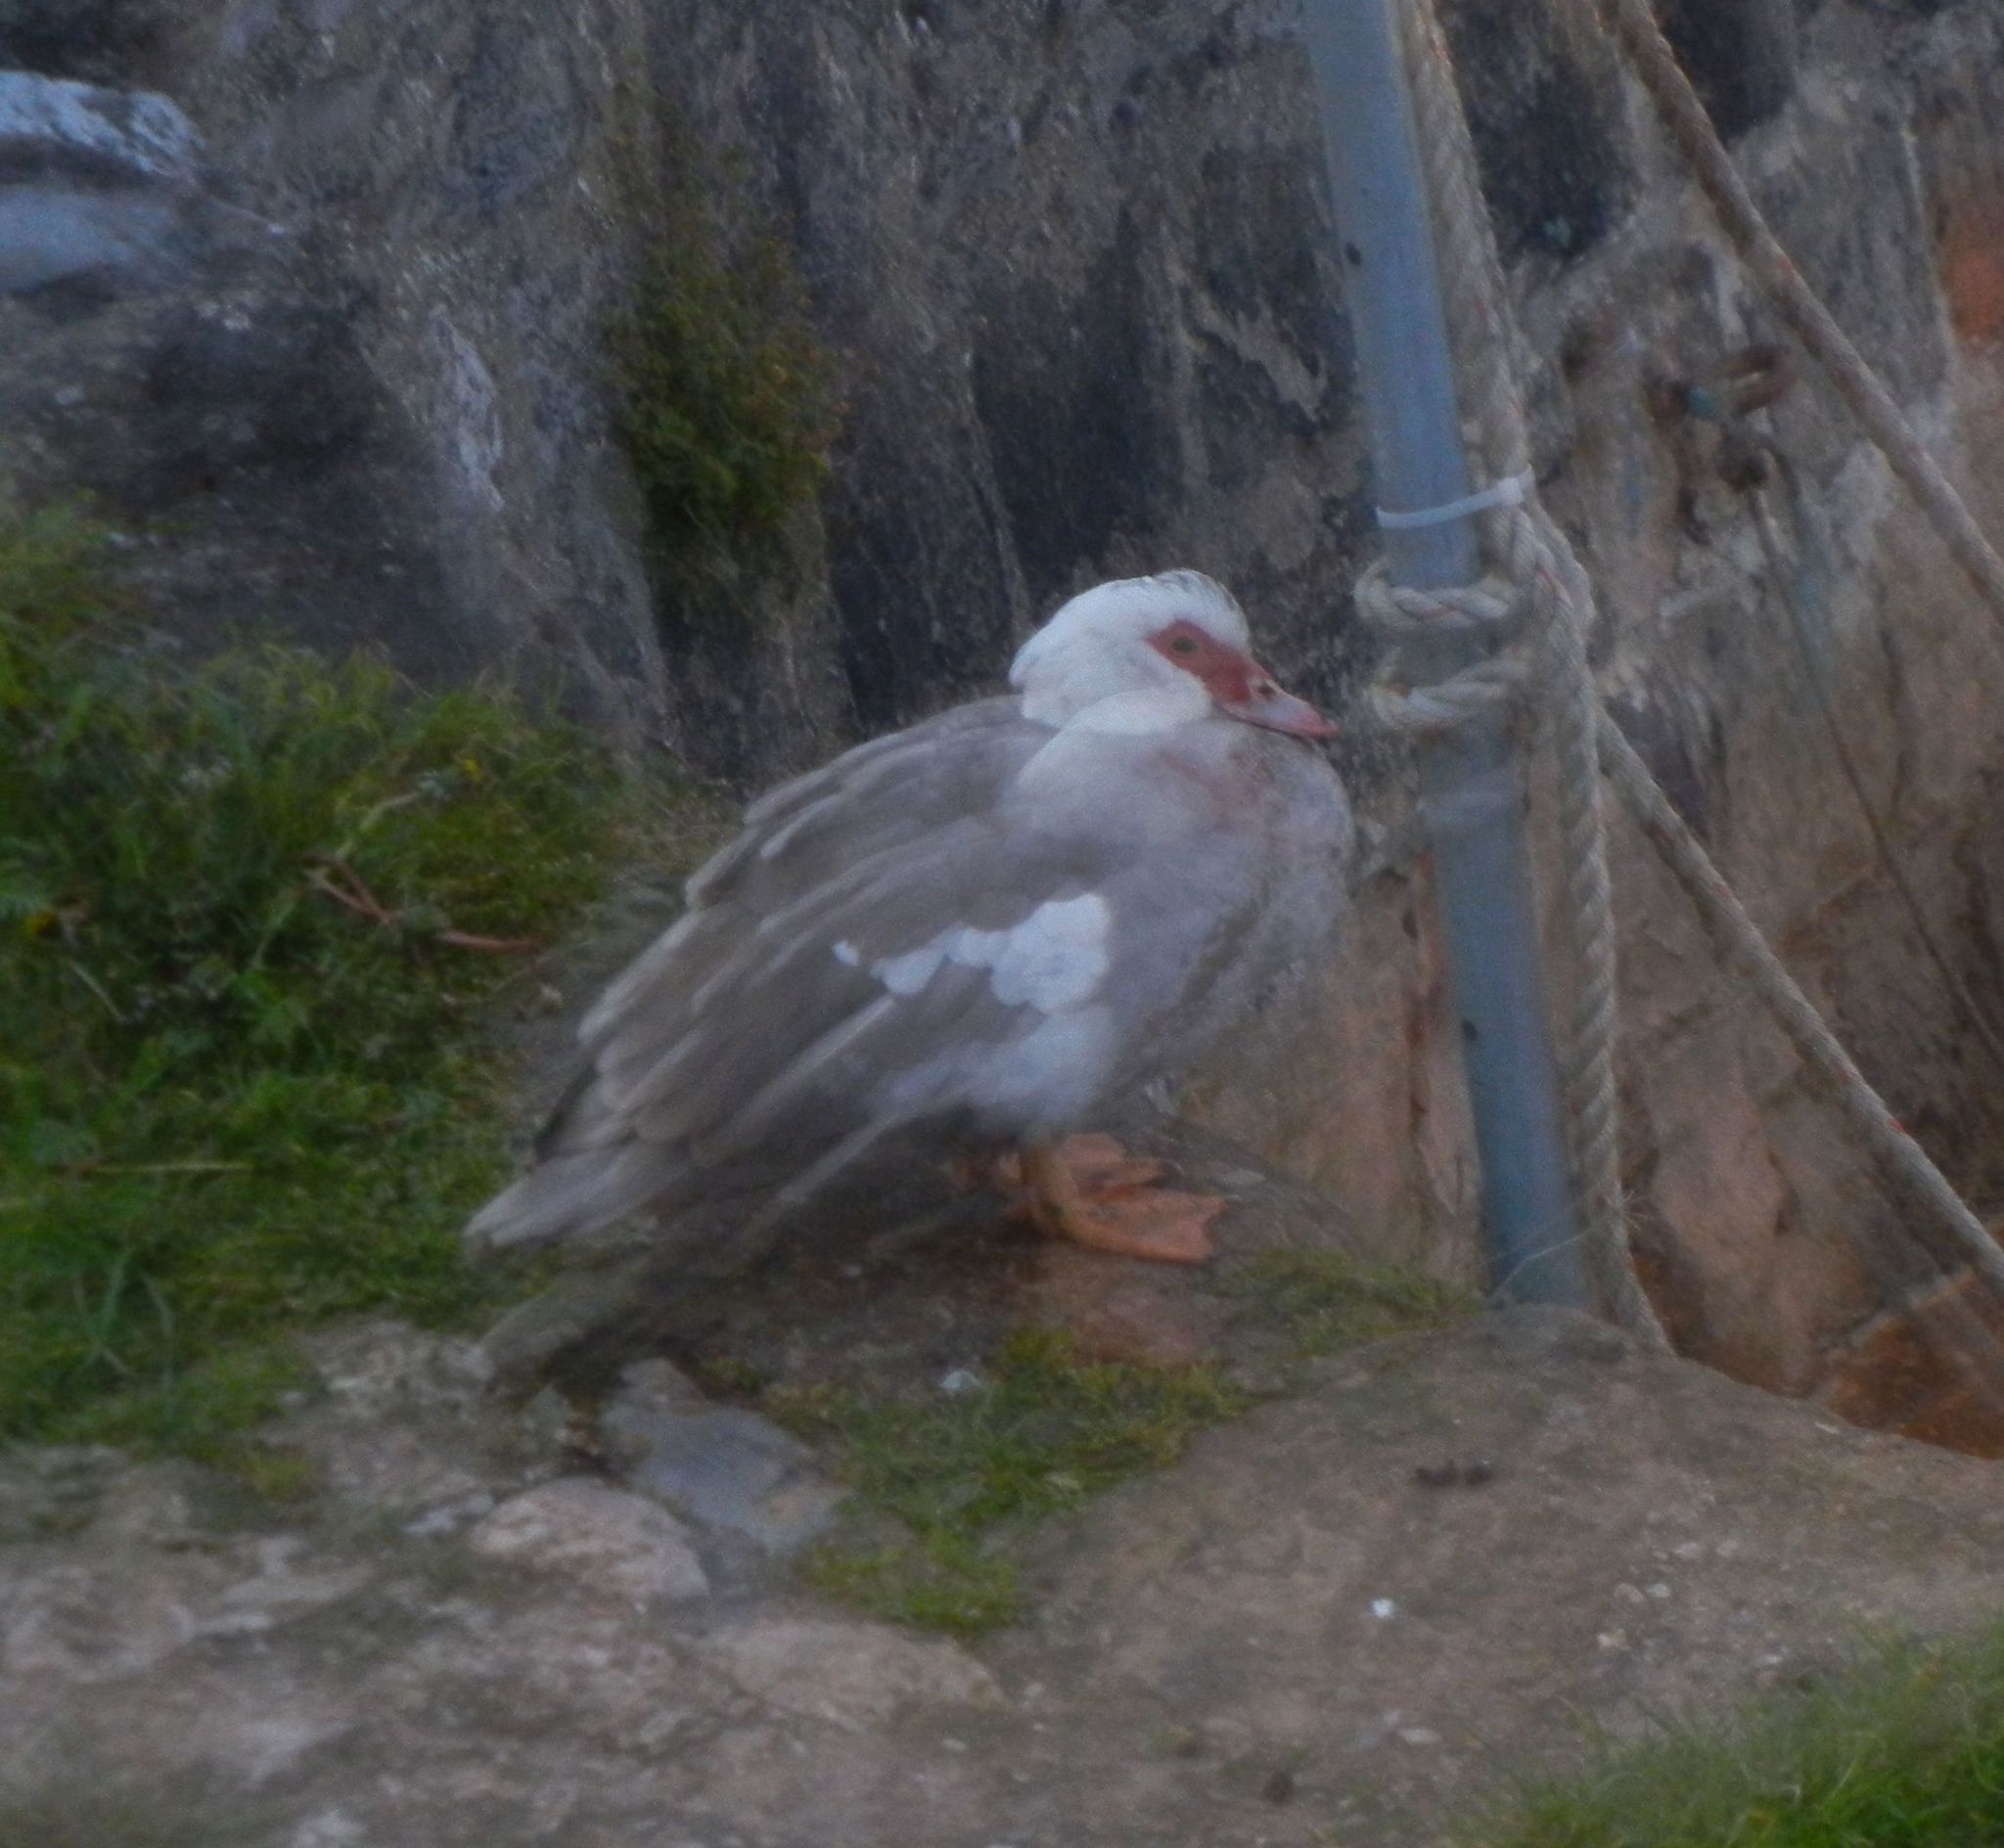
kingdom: Animalia
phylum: Chordata
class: Aves
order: Anseriformes
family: Anatidae
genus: Cairina
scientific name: Cairina moschata
